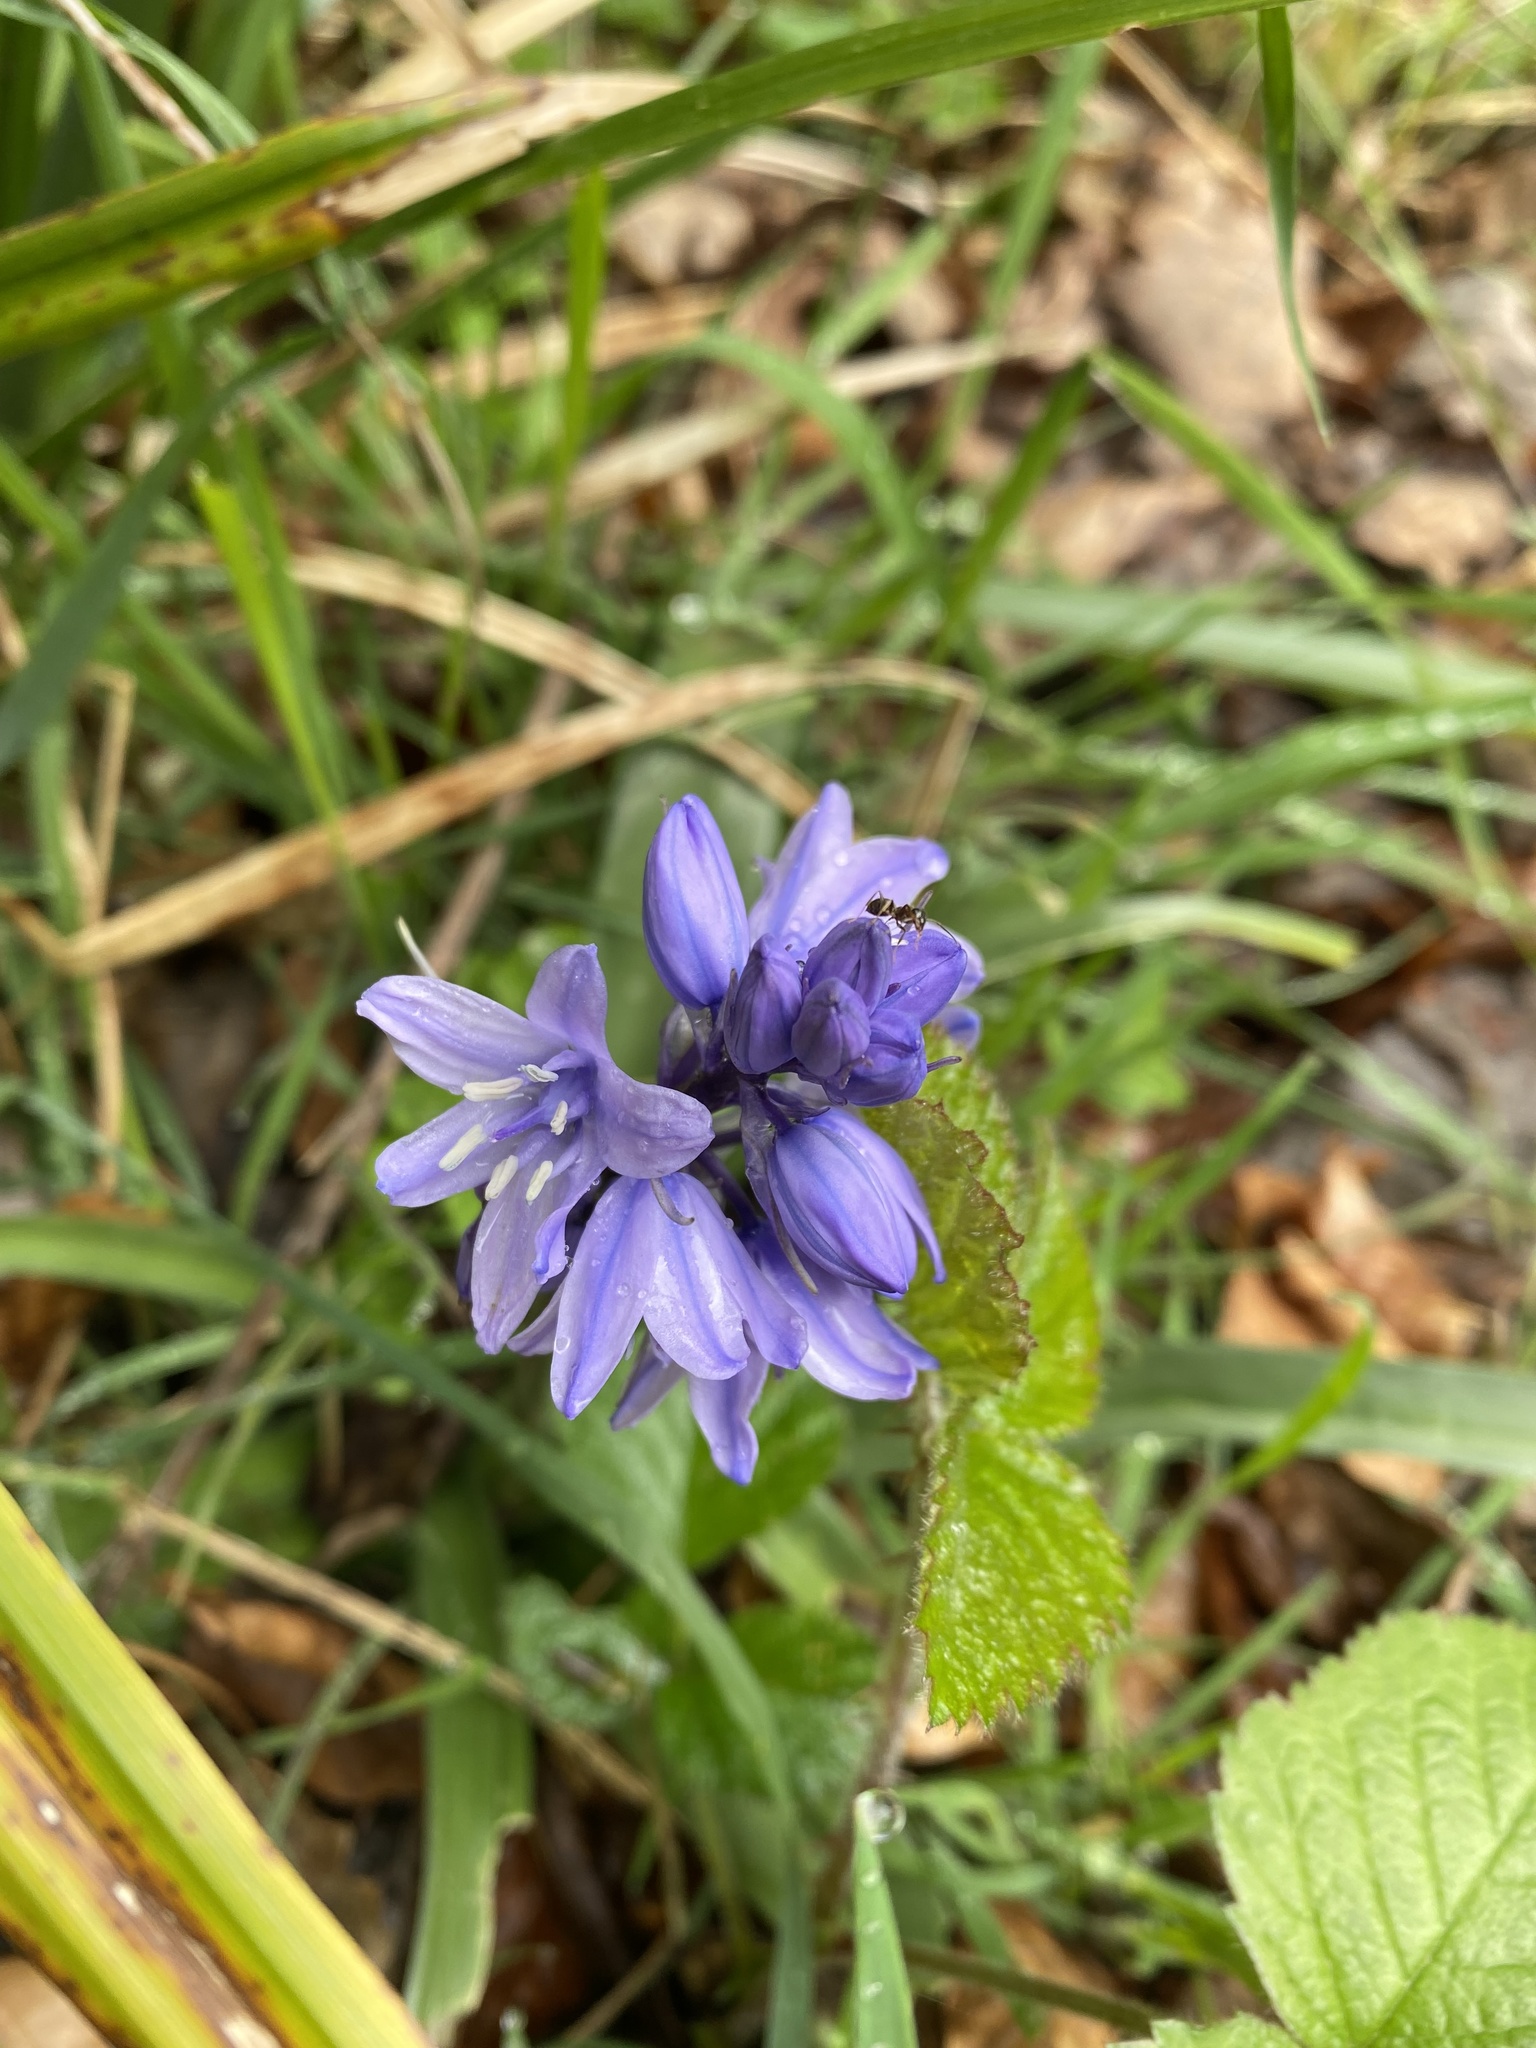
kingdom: Plantae
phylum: Tracheophyta
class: Liliopsida
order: Asparagales
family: Asparagaceae
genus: Hyacinthoides
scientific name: Hyacinthoides hispanica
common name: Spanish bluebell
